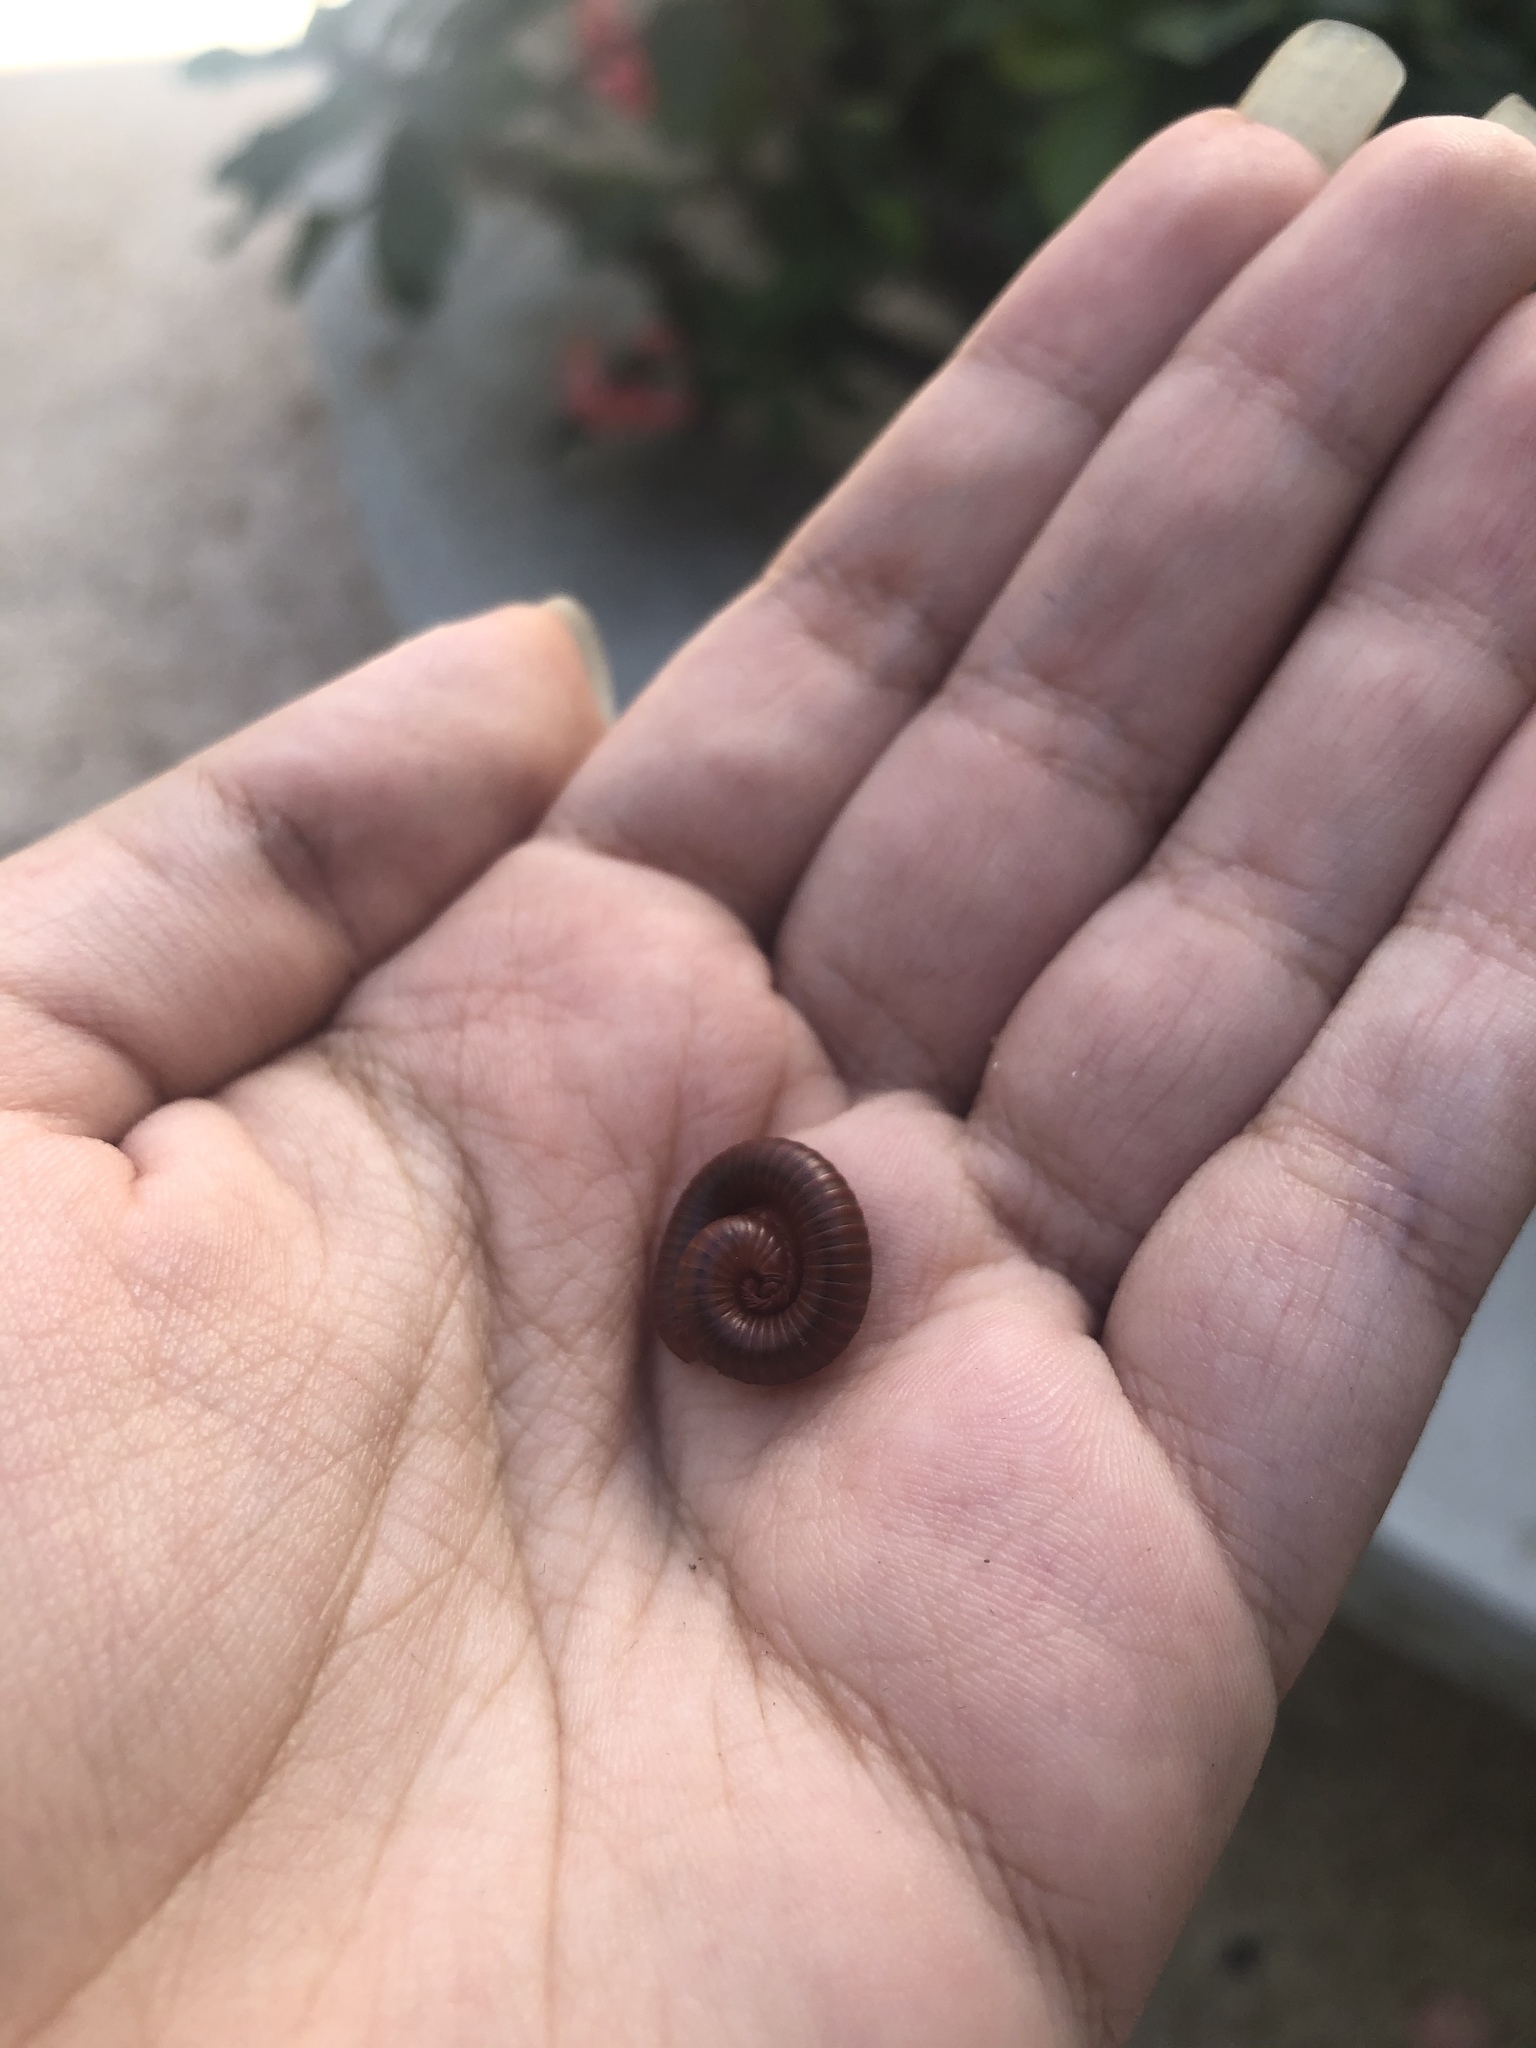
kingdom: Animalia
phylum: Arthropoda
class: Diplopoda
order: Spirobolida
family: Pachybolidae
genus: Trigoniulus
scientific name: Trigoniulus corallinus
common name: Millipede
